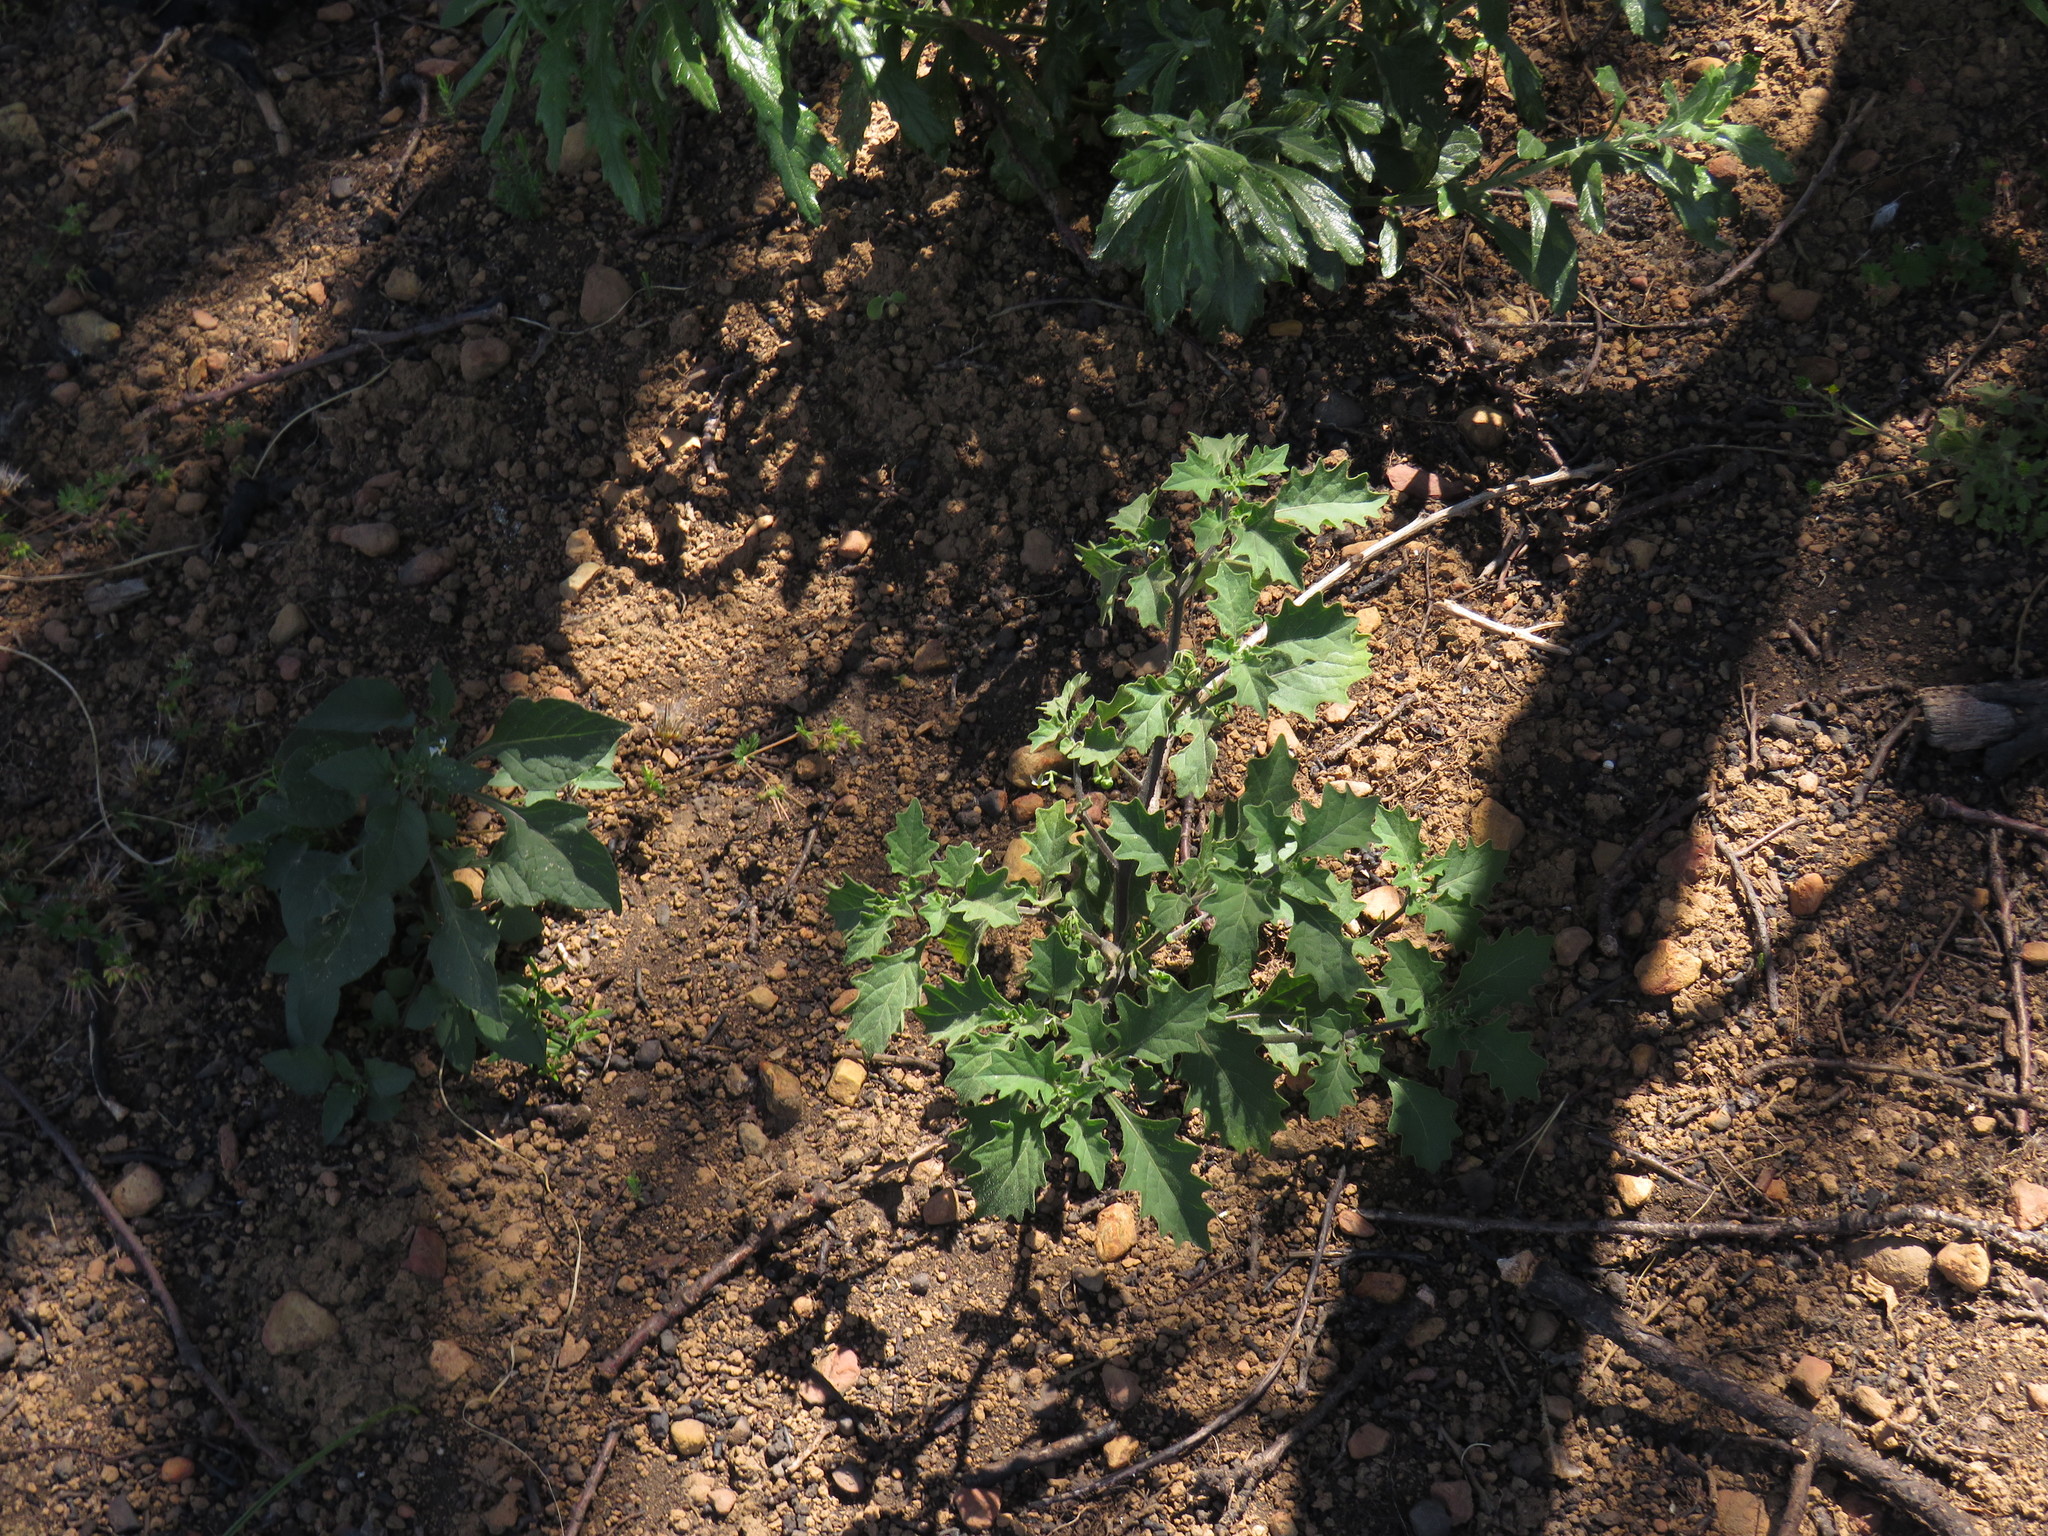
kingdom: Plantae
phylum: Tracheophyta
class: Magnoliopsida
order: Solanales
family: Solanaceae
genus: Solanum
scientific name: Solanum nigrum
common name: Black nightshade
